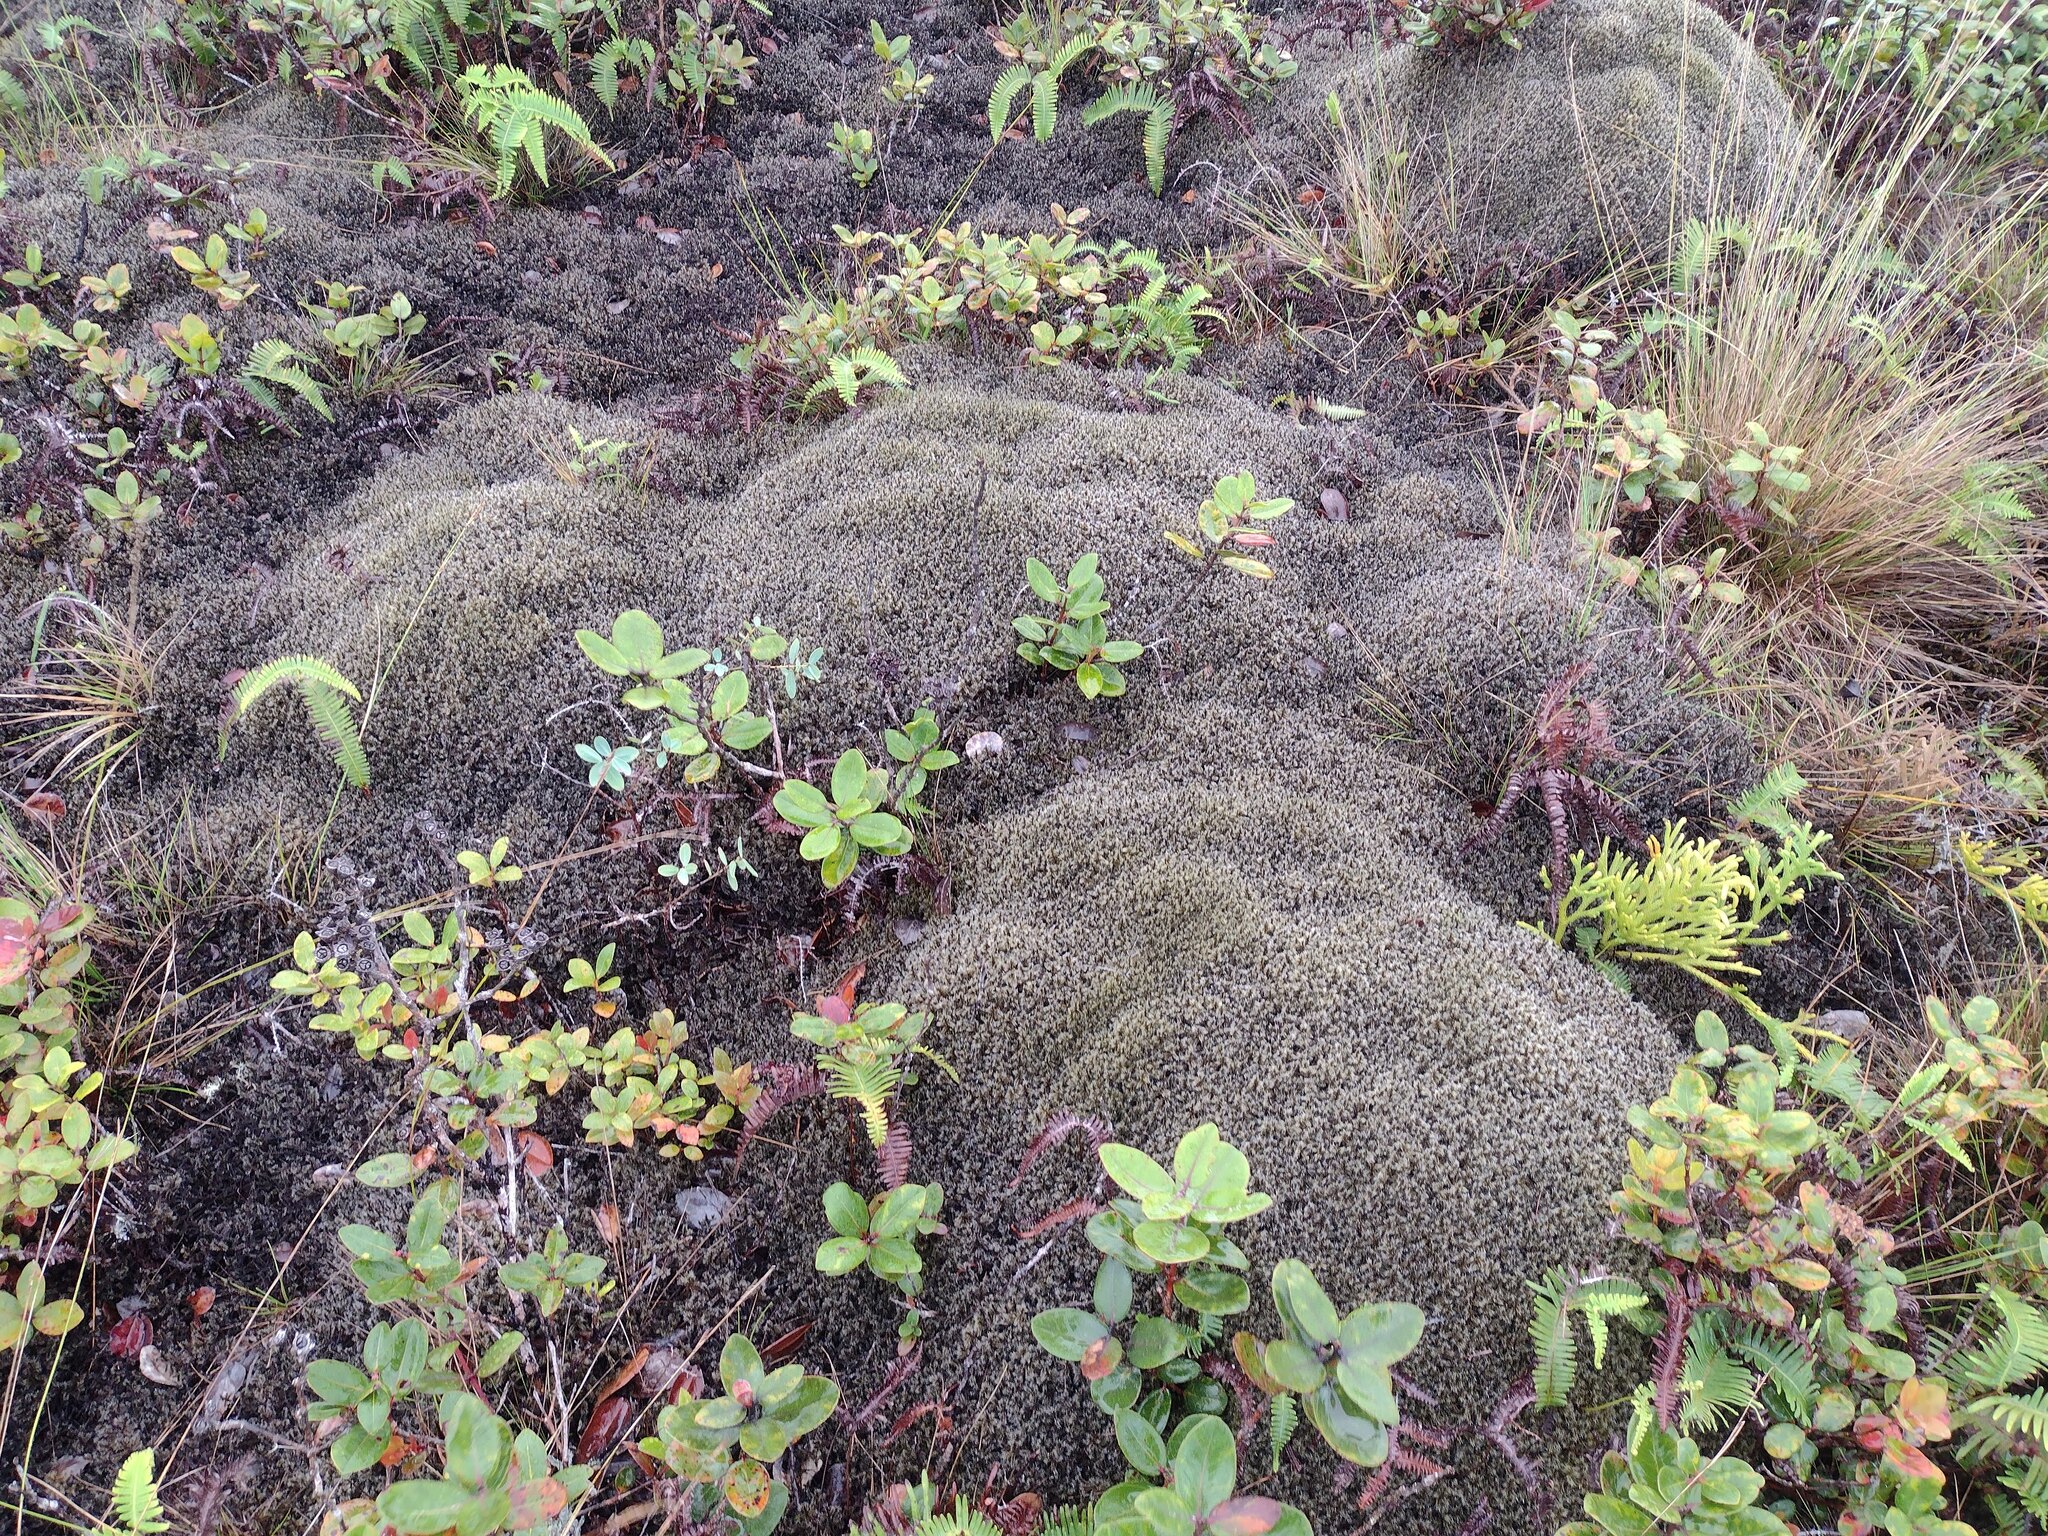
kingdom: Plantae
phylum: Tracheophyta
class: Magnoliopsida
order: Myrtales
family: Myrtaceae
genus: Metrosideros
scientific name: Metrosideros polymorpha
